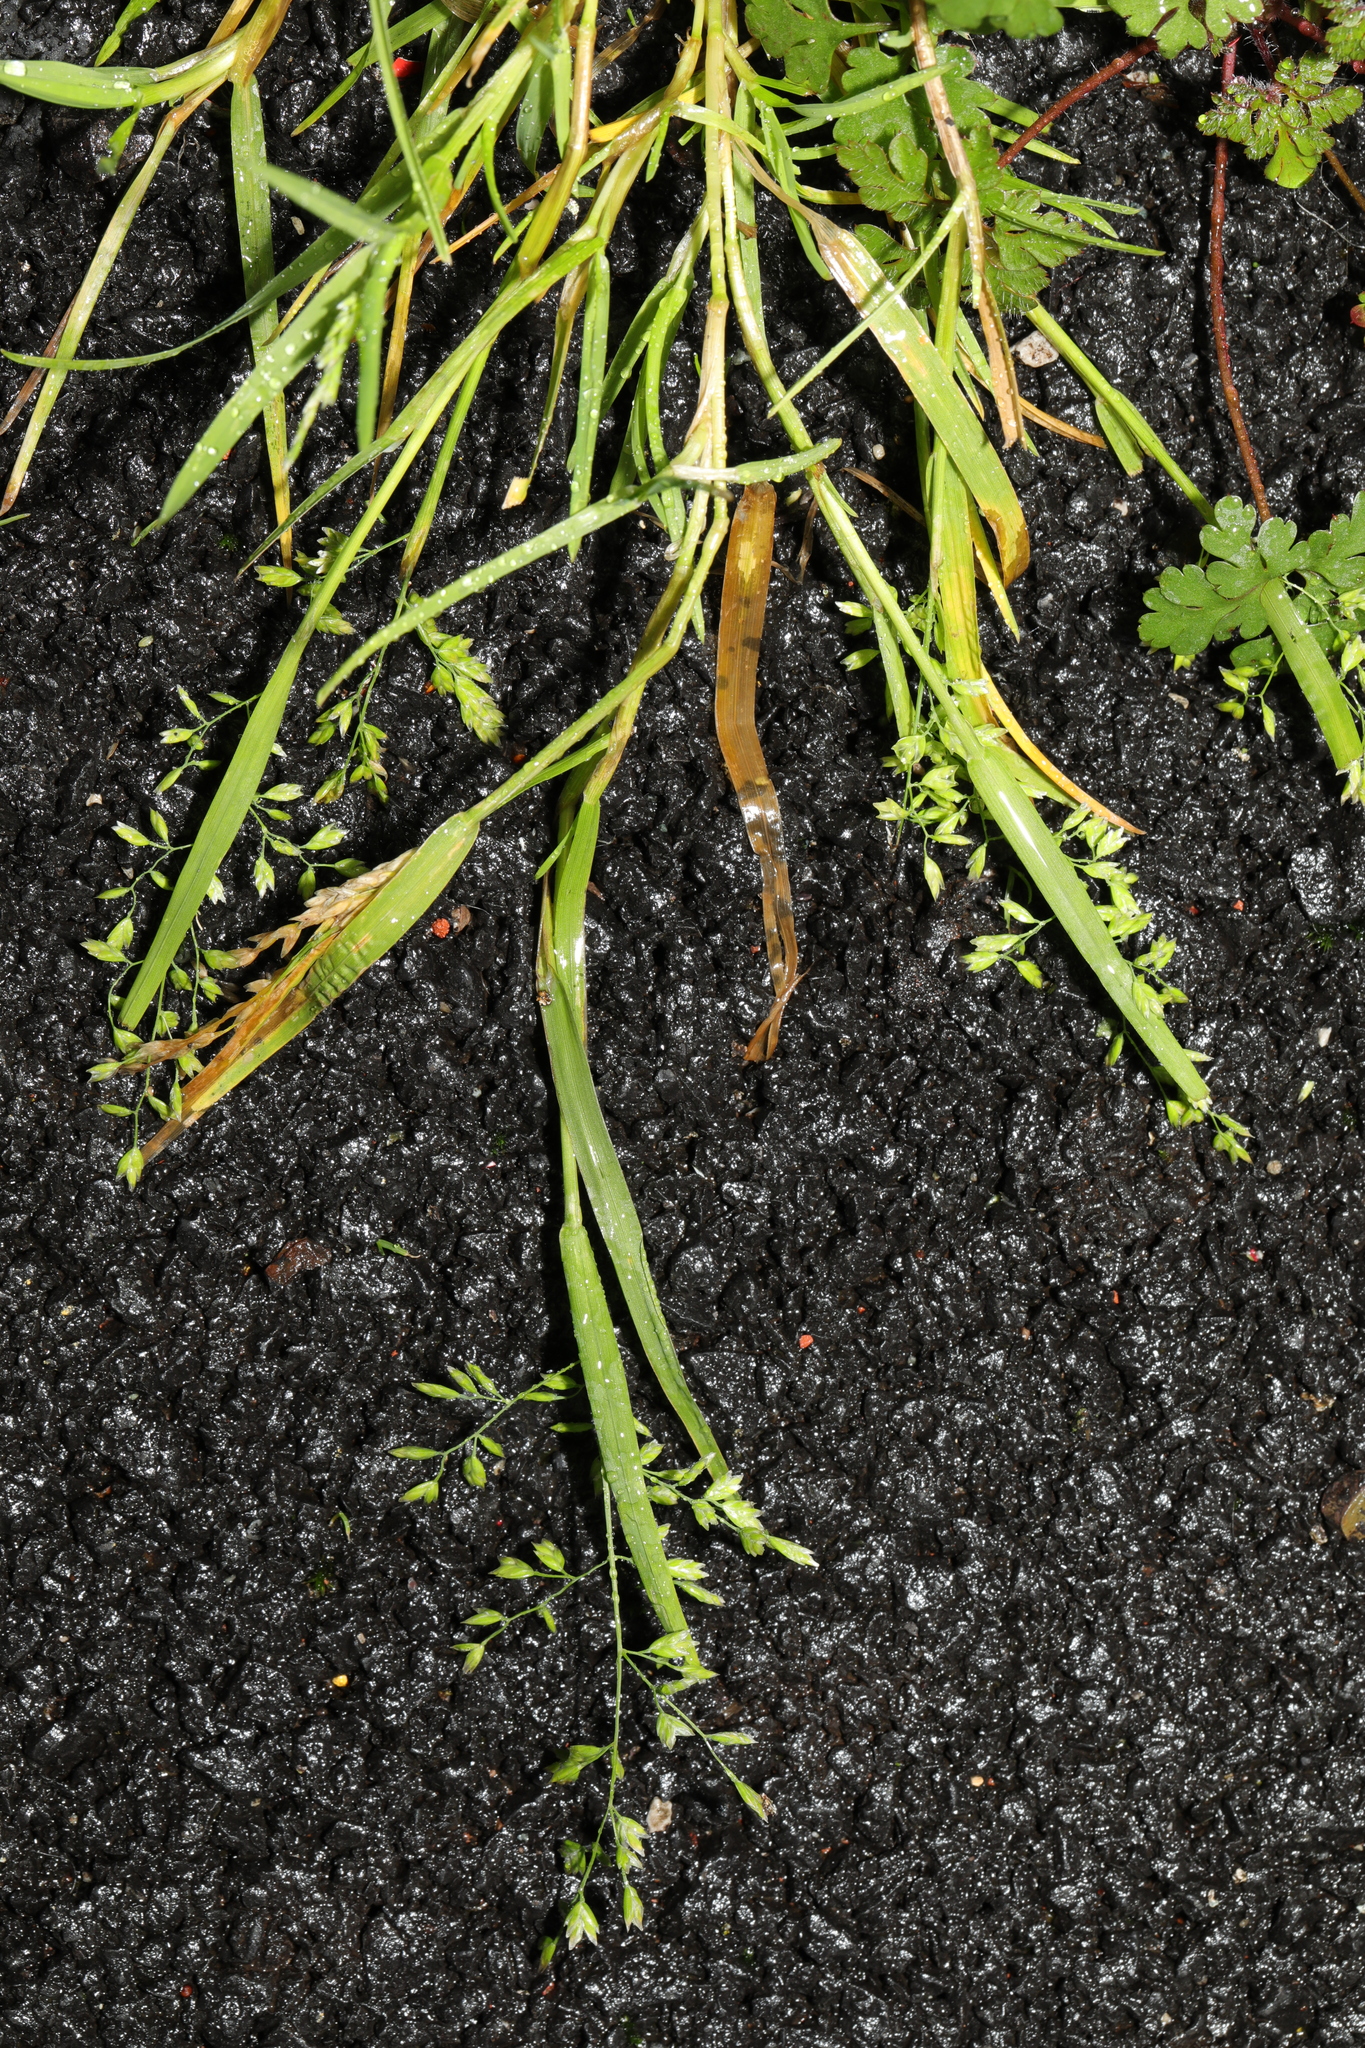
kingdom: Plantae
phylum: Tracheophyta
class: Liliopsida
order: Poales
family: Poaceae
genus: Poa
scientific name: Poa annua
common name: Annual bluegrass
